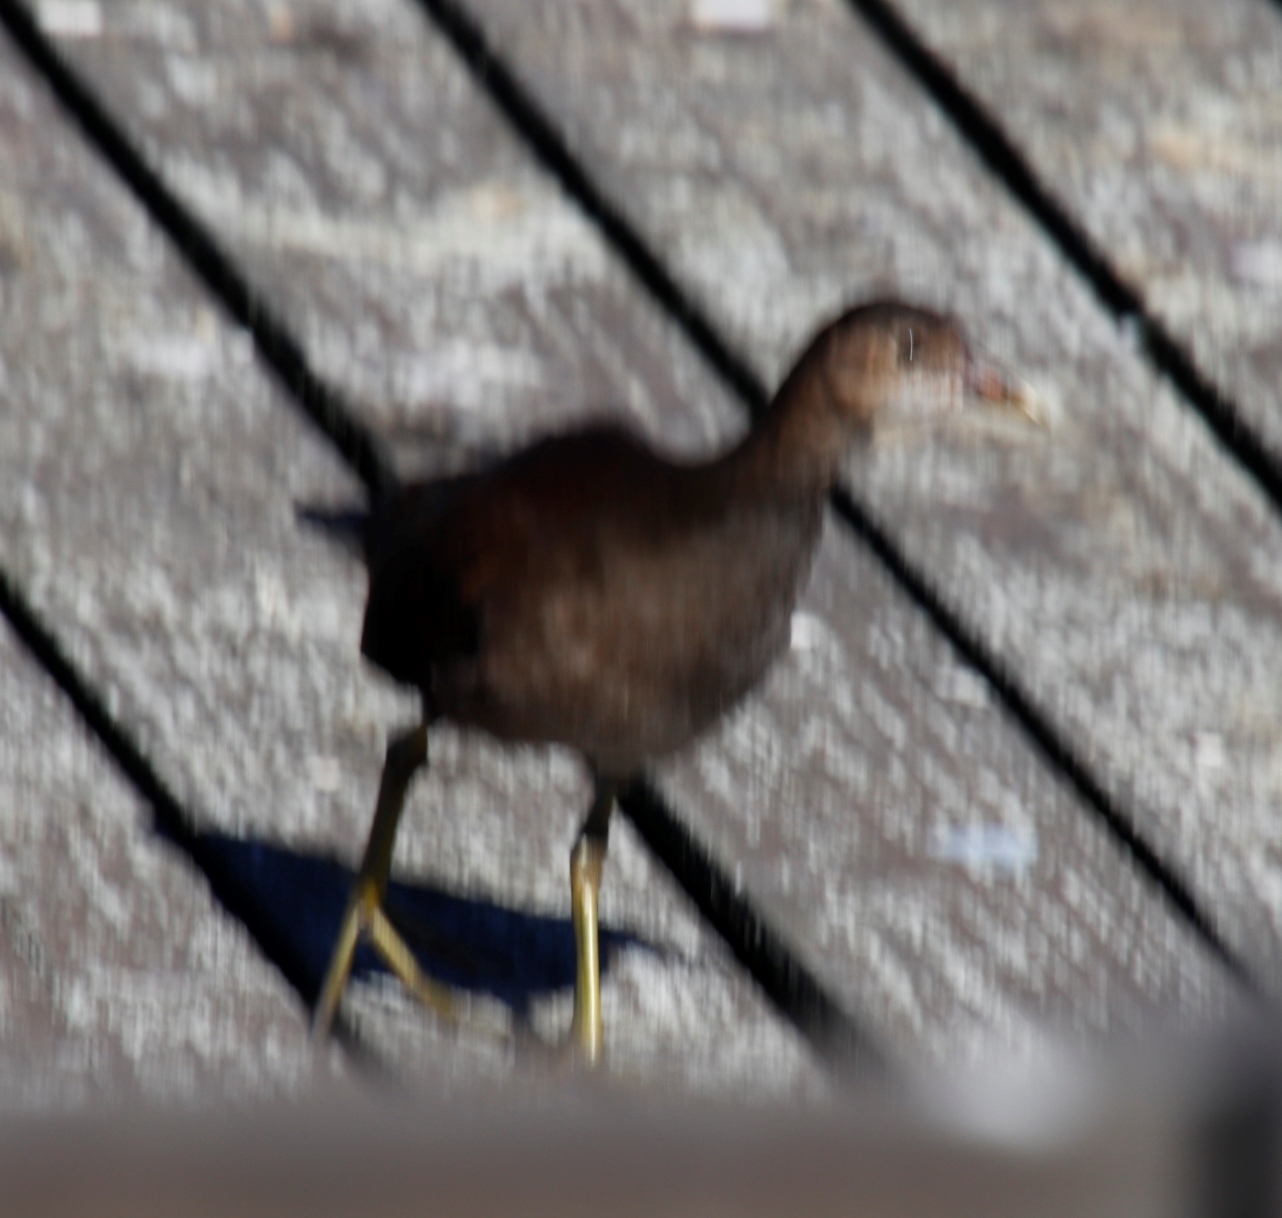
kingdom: Animalia
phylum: Chordata
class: Aves
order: Gruiformes
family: Rallidae
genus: Gallinula
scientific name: Gallinula chloropus
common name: Common moorhen
